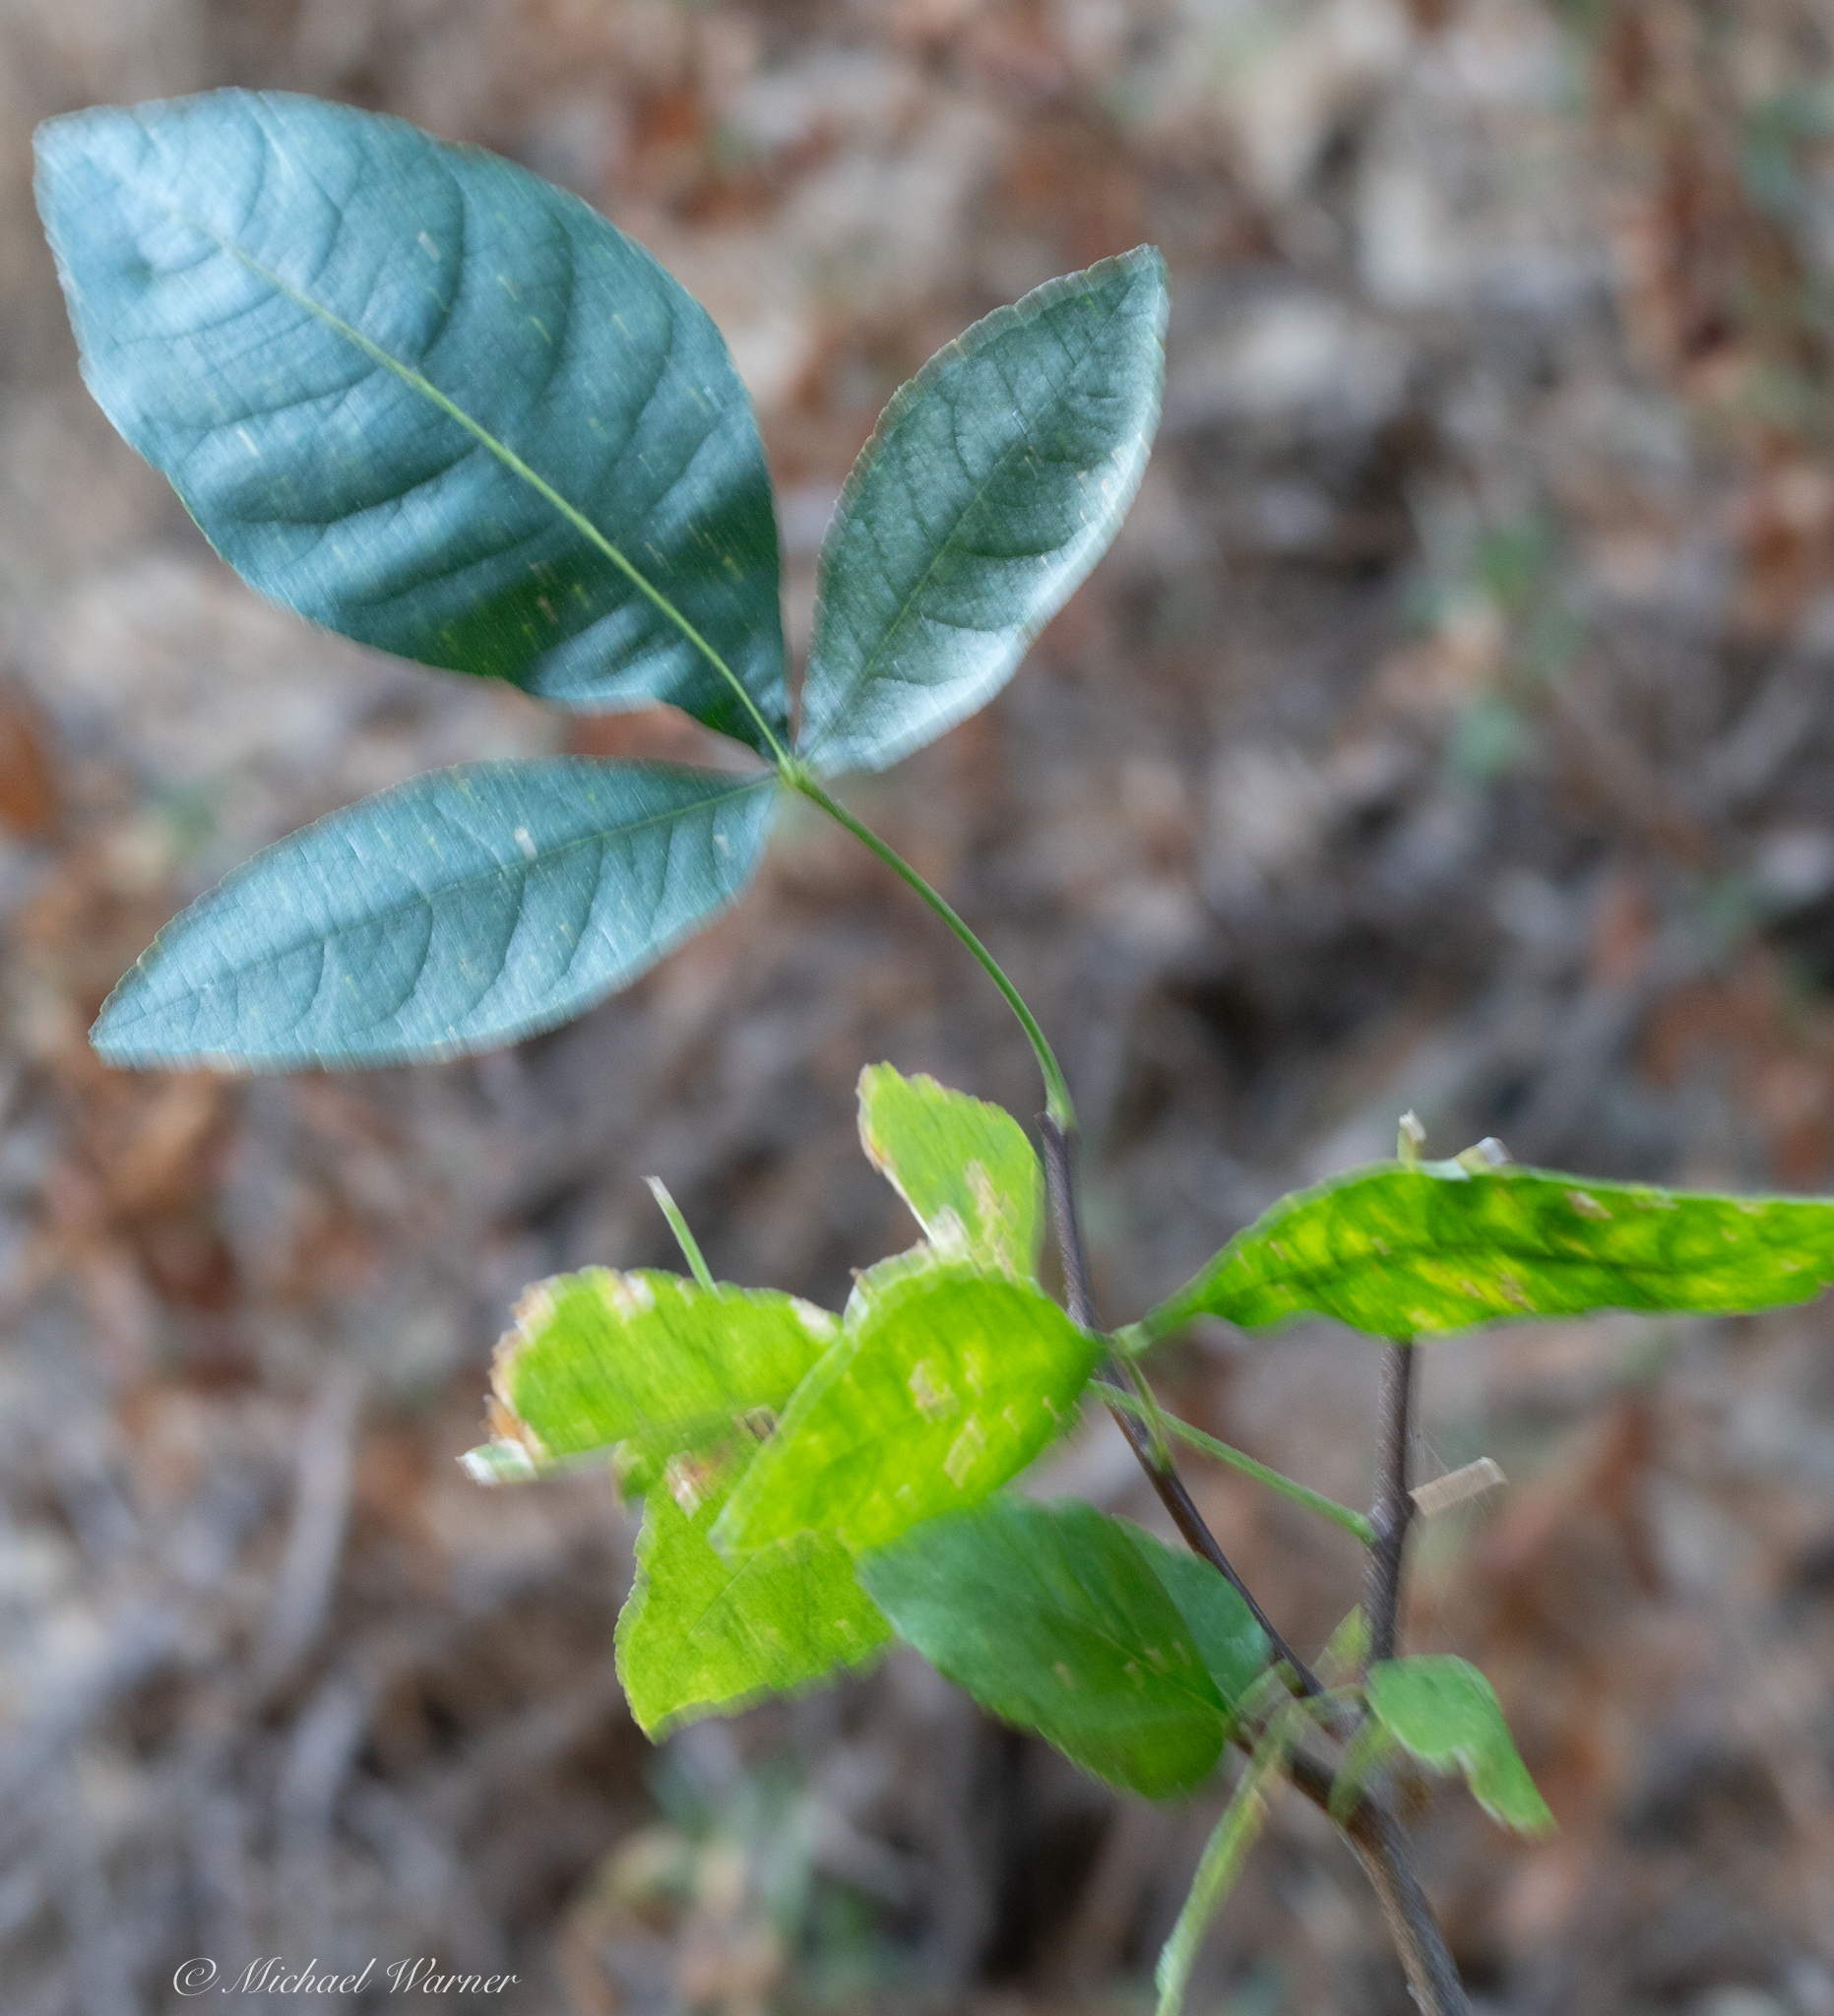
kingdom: Plantae
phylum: Tracheophyta
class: Magnoliopsida
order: Sapindales
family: Rutaceae
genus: Ptelea
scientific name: Ptelea crenulata
